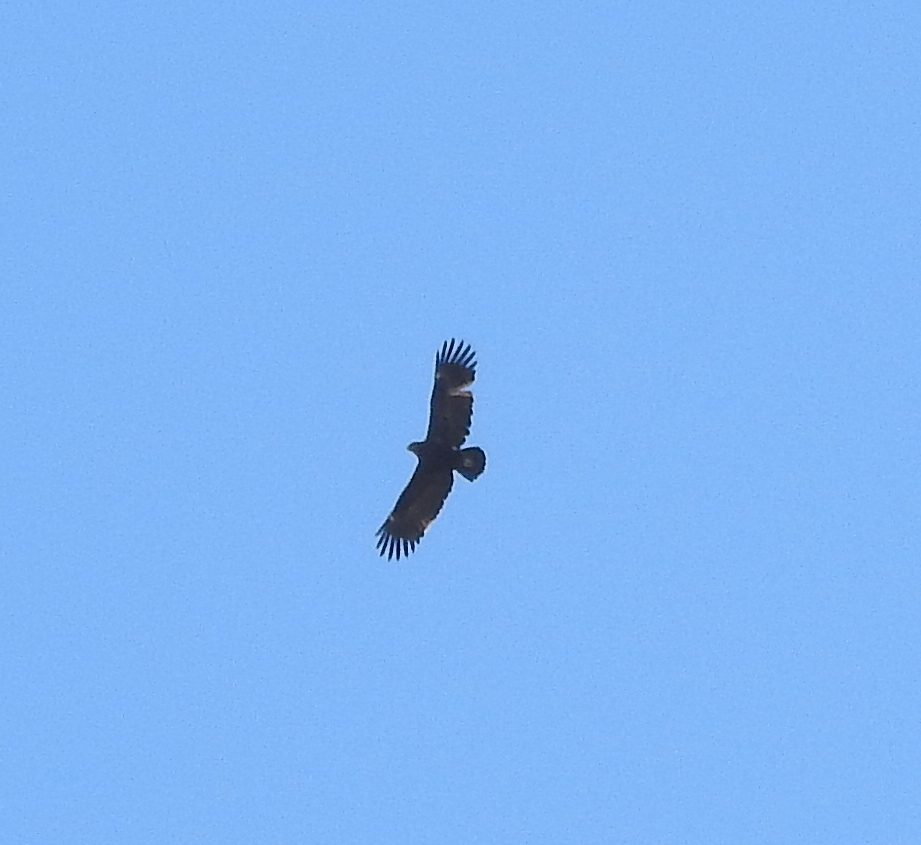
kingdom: Animalia
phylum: Chordata
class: Aves
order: Accipitriformes
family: Accipitridae
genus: Aquila
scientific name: Aquila clanga
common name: Greater spotted eagle
